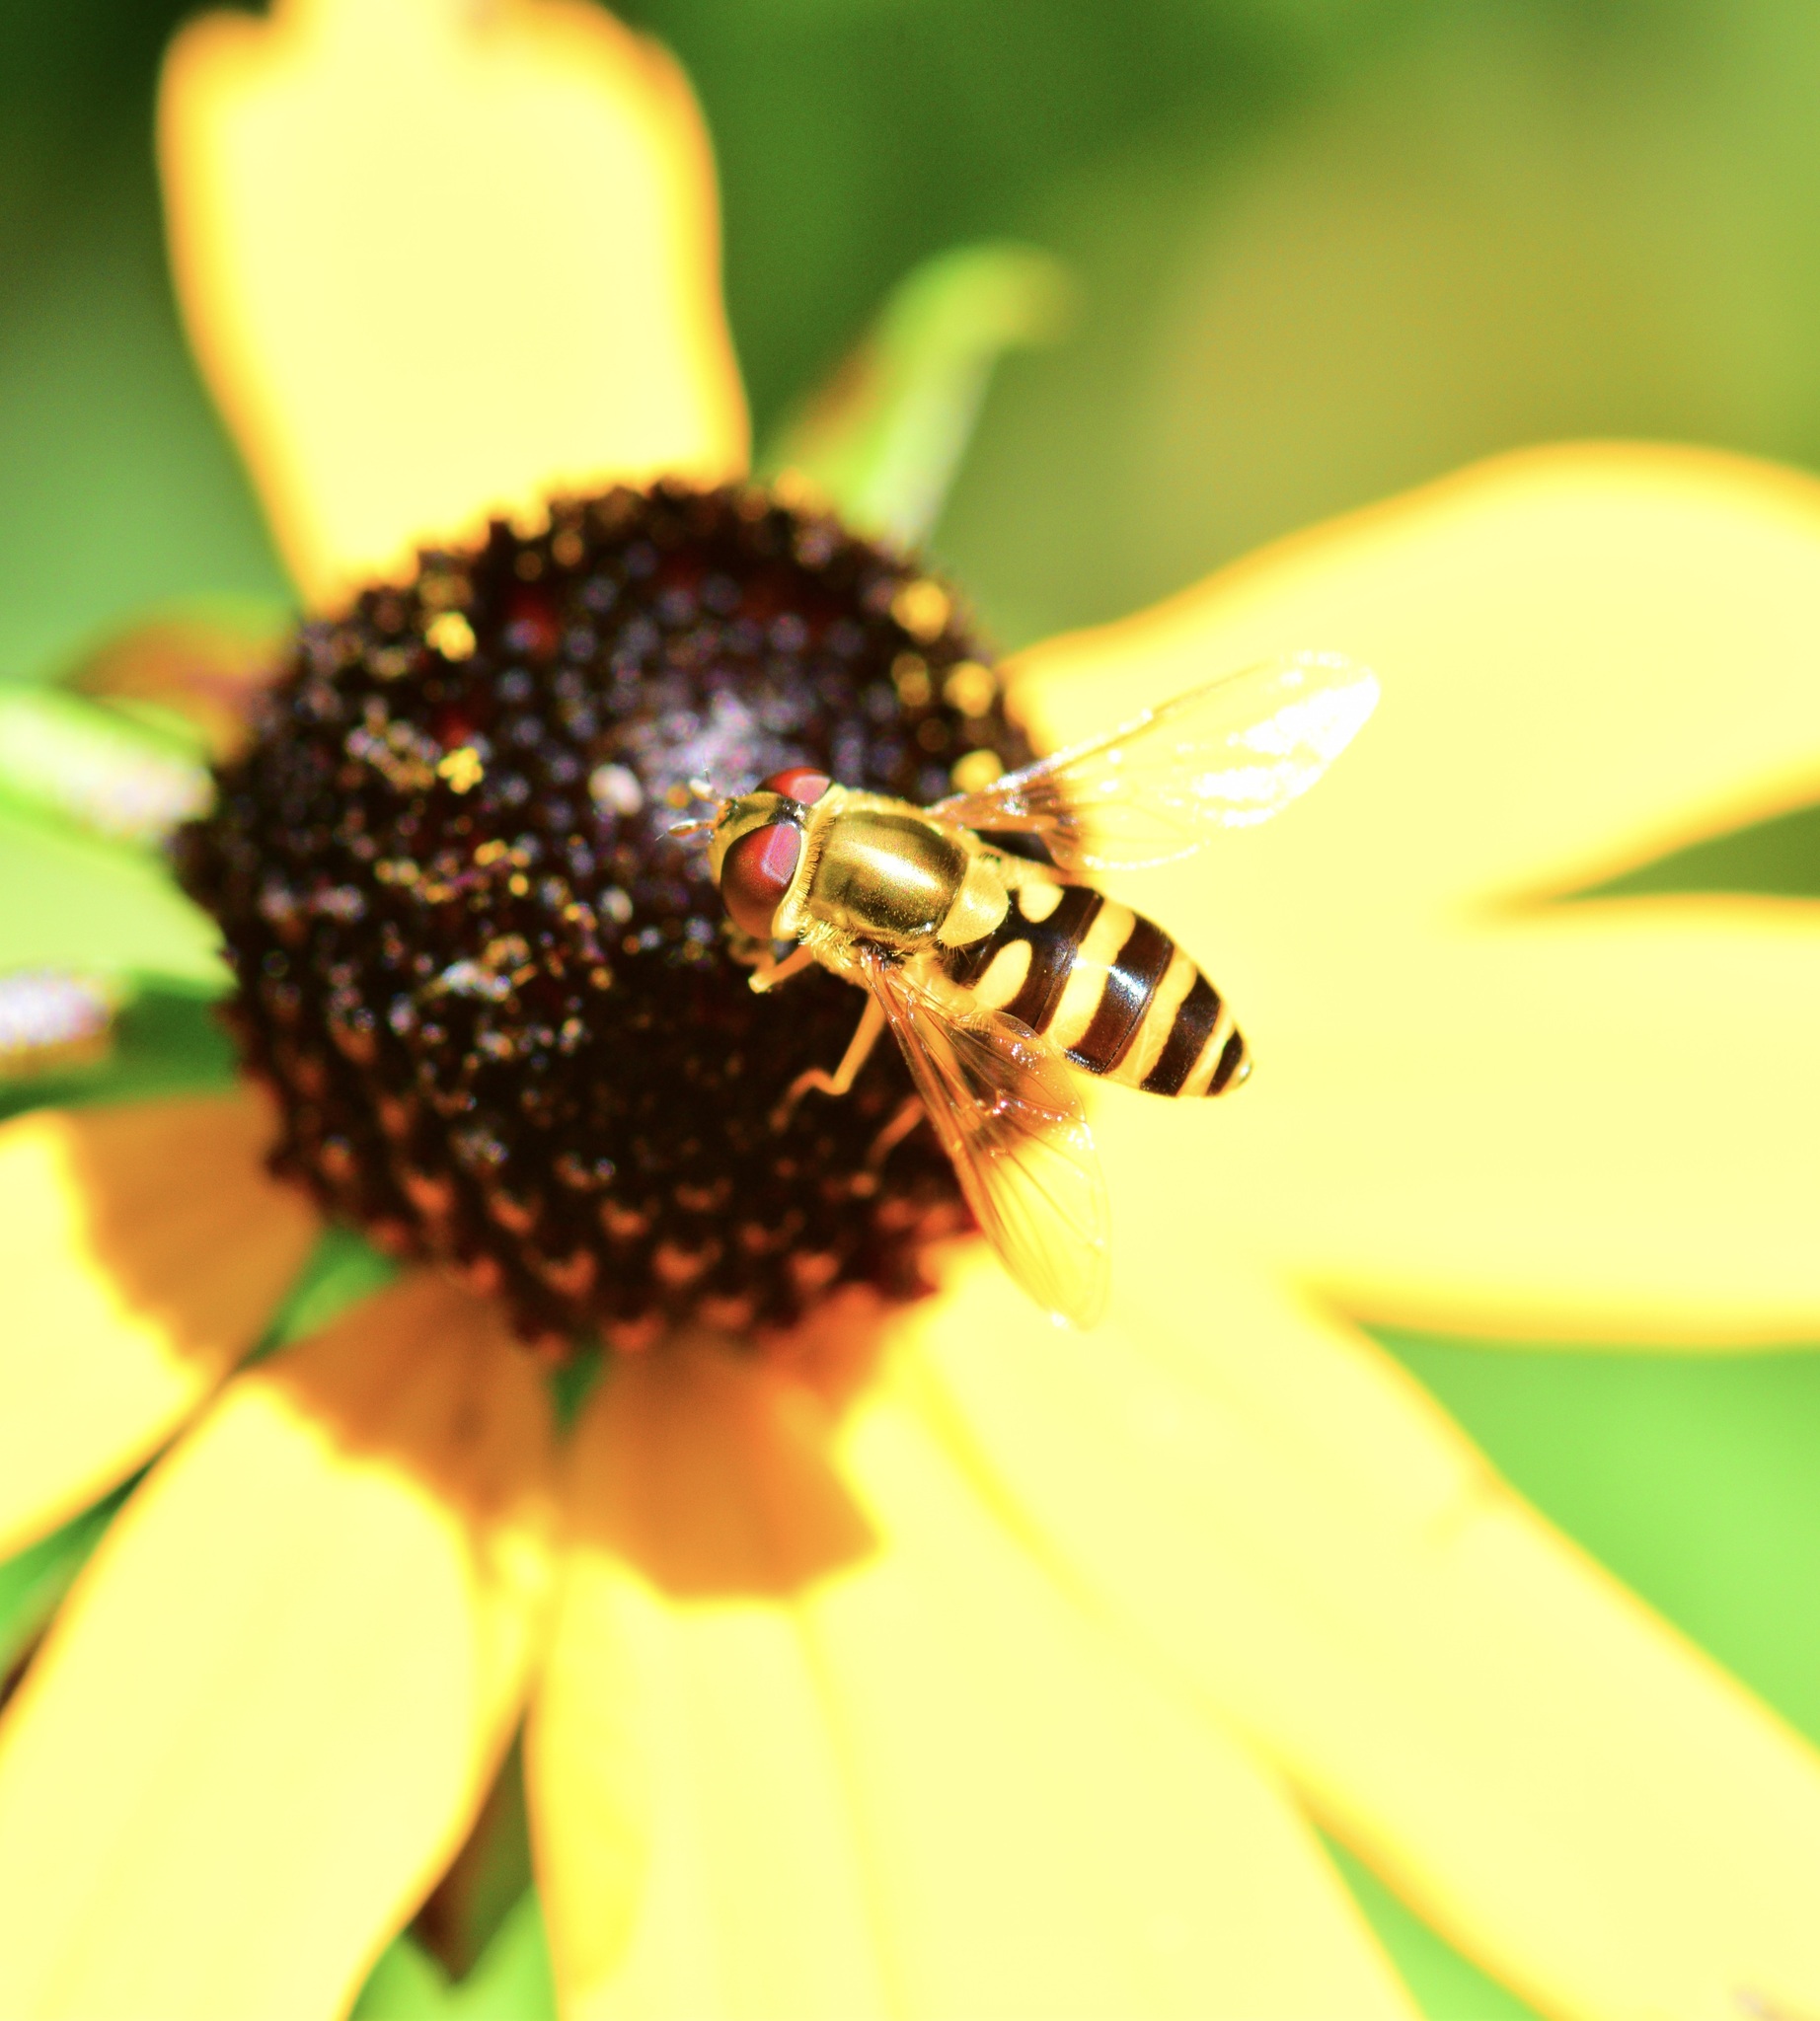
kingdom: Animalia
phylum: Arthropoda
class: Insecta
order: Diptera
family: Syrphidae
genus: Syrphus
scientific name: Syrphus ribesii
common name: Common flower fly
